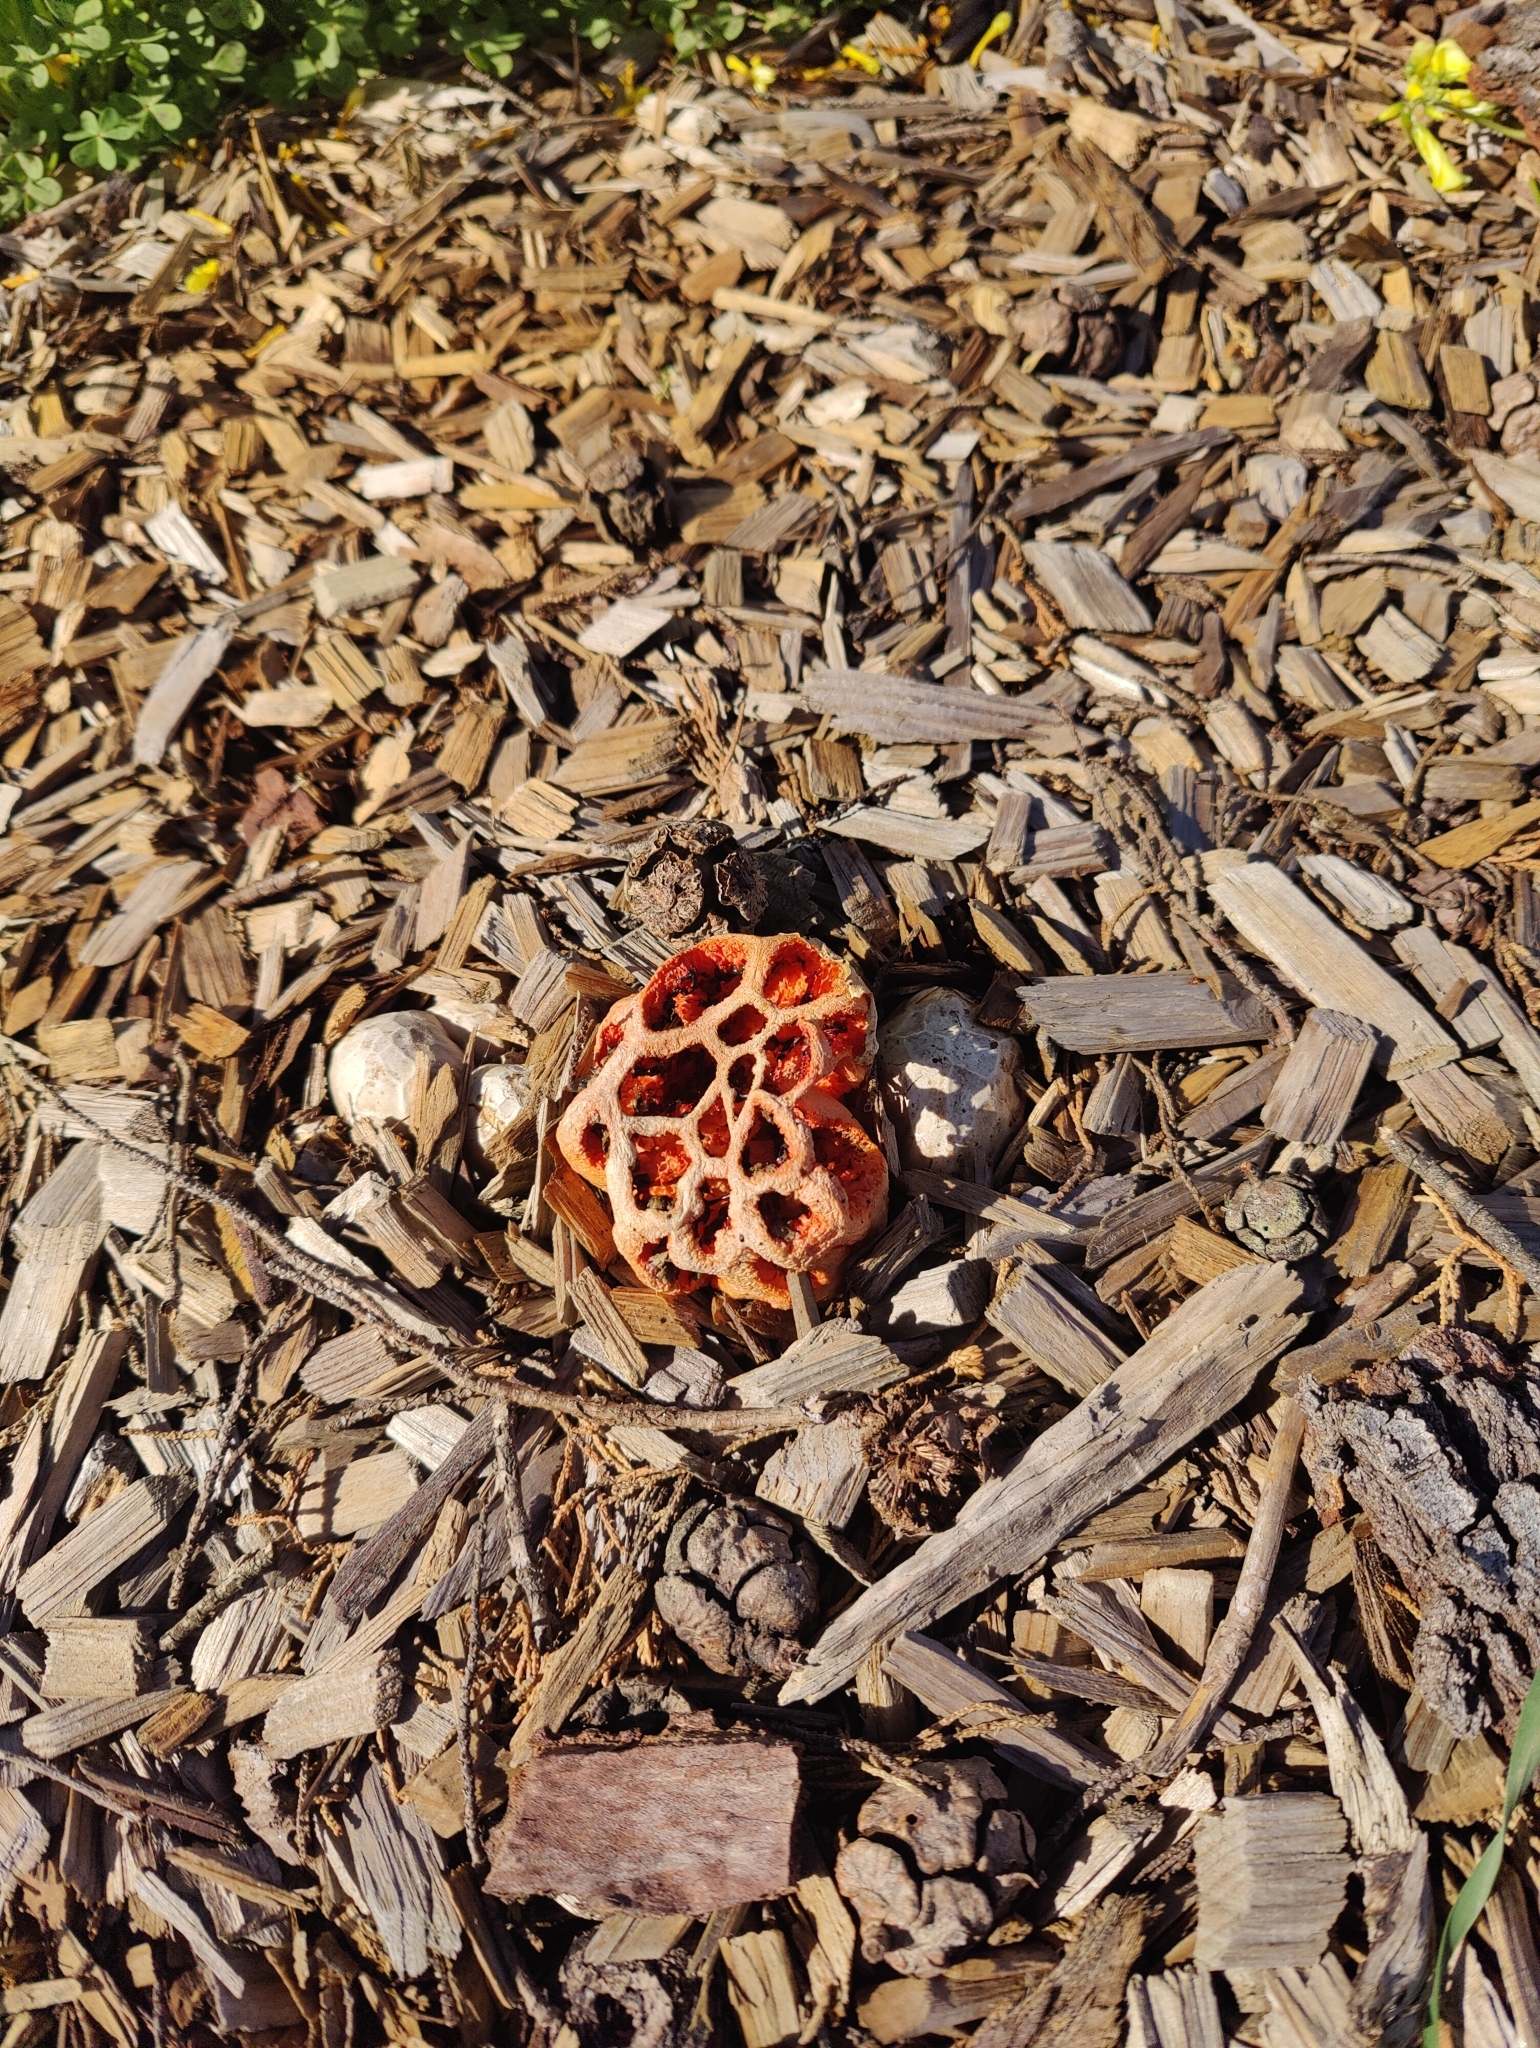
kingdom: Fungi
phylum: Basidiomycota
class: Agaricomycetes
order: Phallales
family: Phallaceae
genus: Clathrus
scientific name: Clathrus ruber
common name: Red cage
